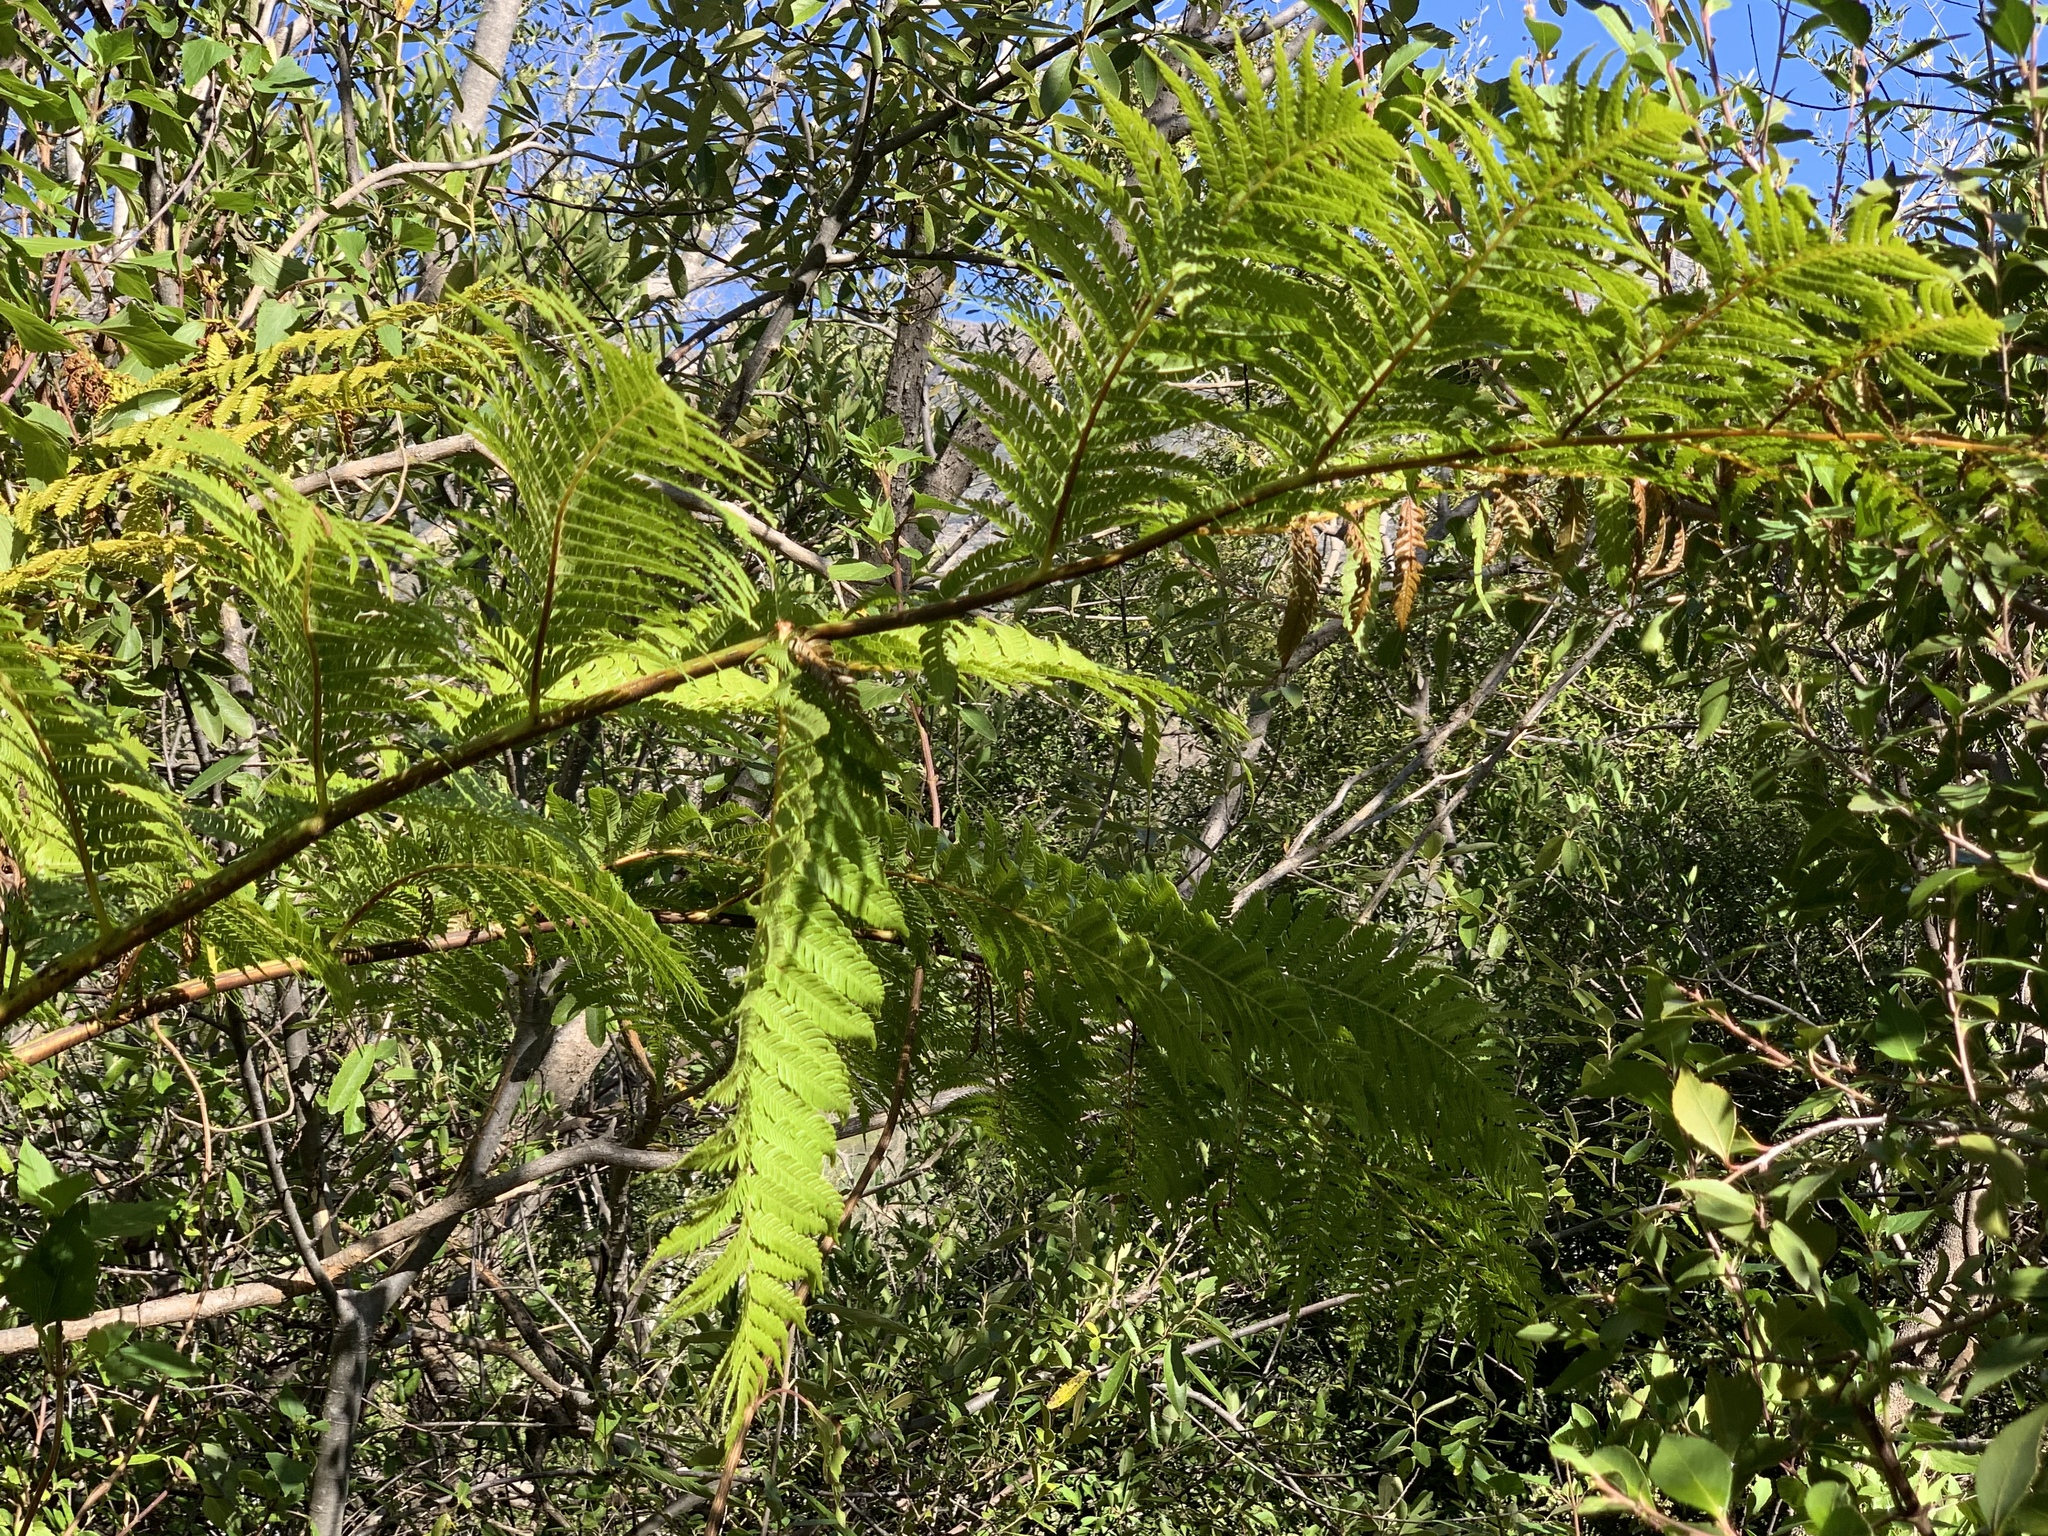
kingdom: Plantae
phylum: Tracheophyta
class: Polypodiopsida
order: Cyatheales
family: Cyatheaceae
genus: Sphaeropteris
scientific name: Sphaeropteris cooperi
